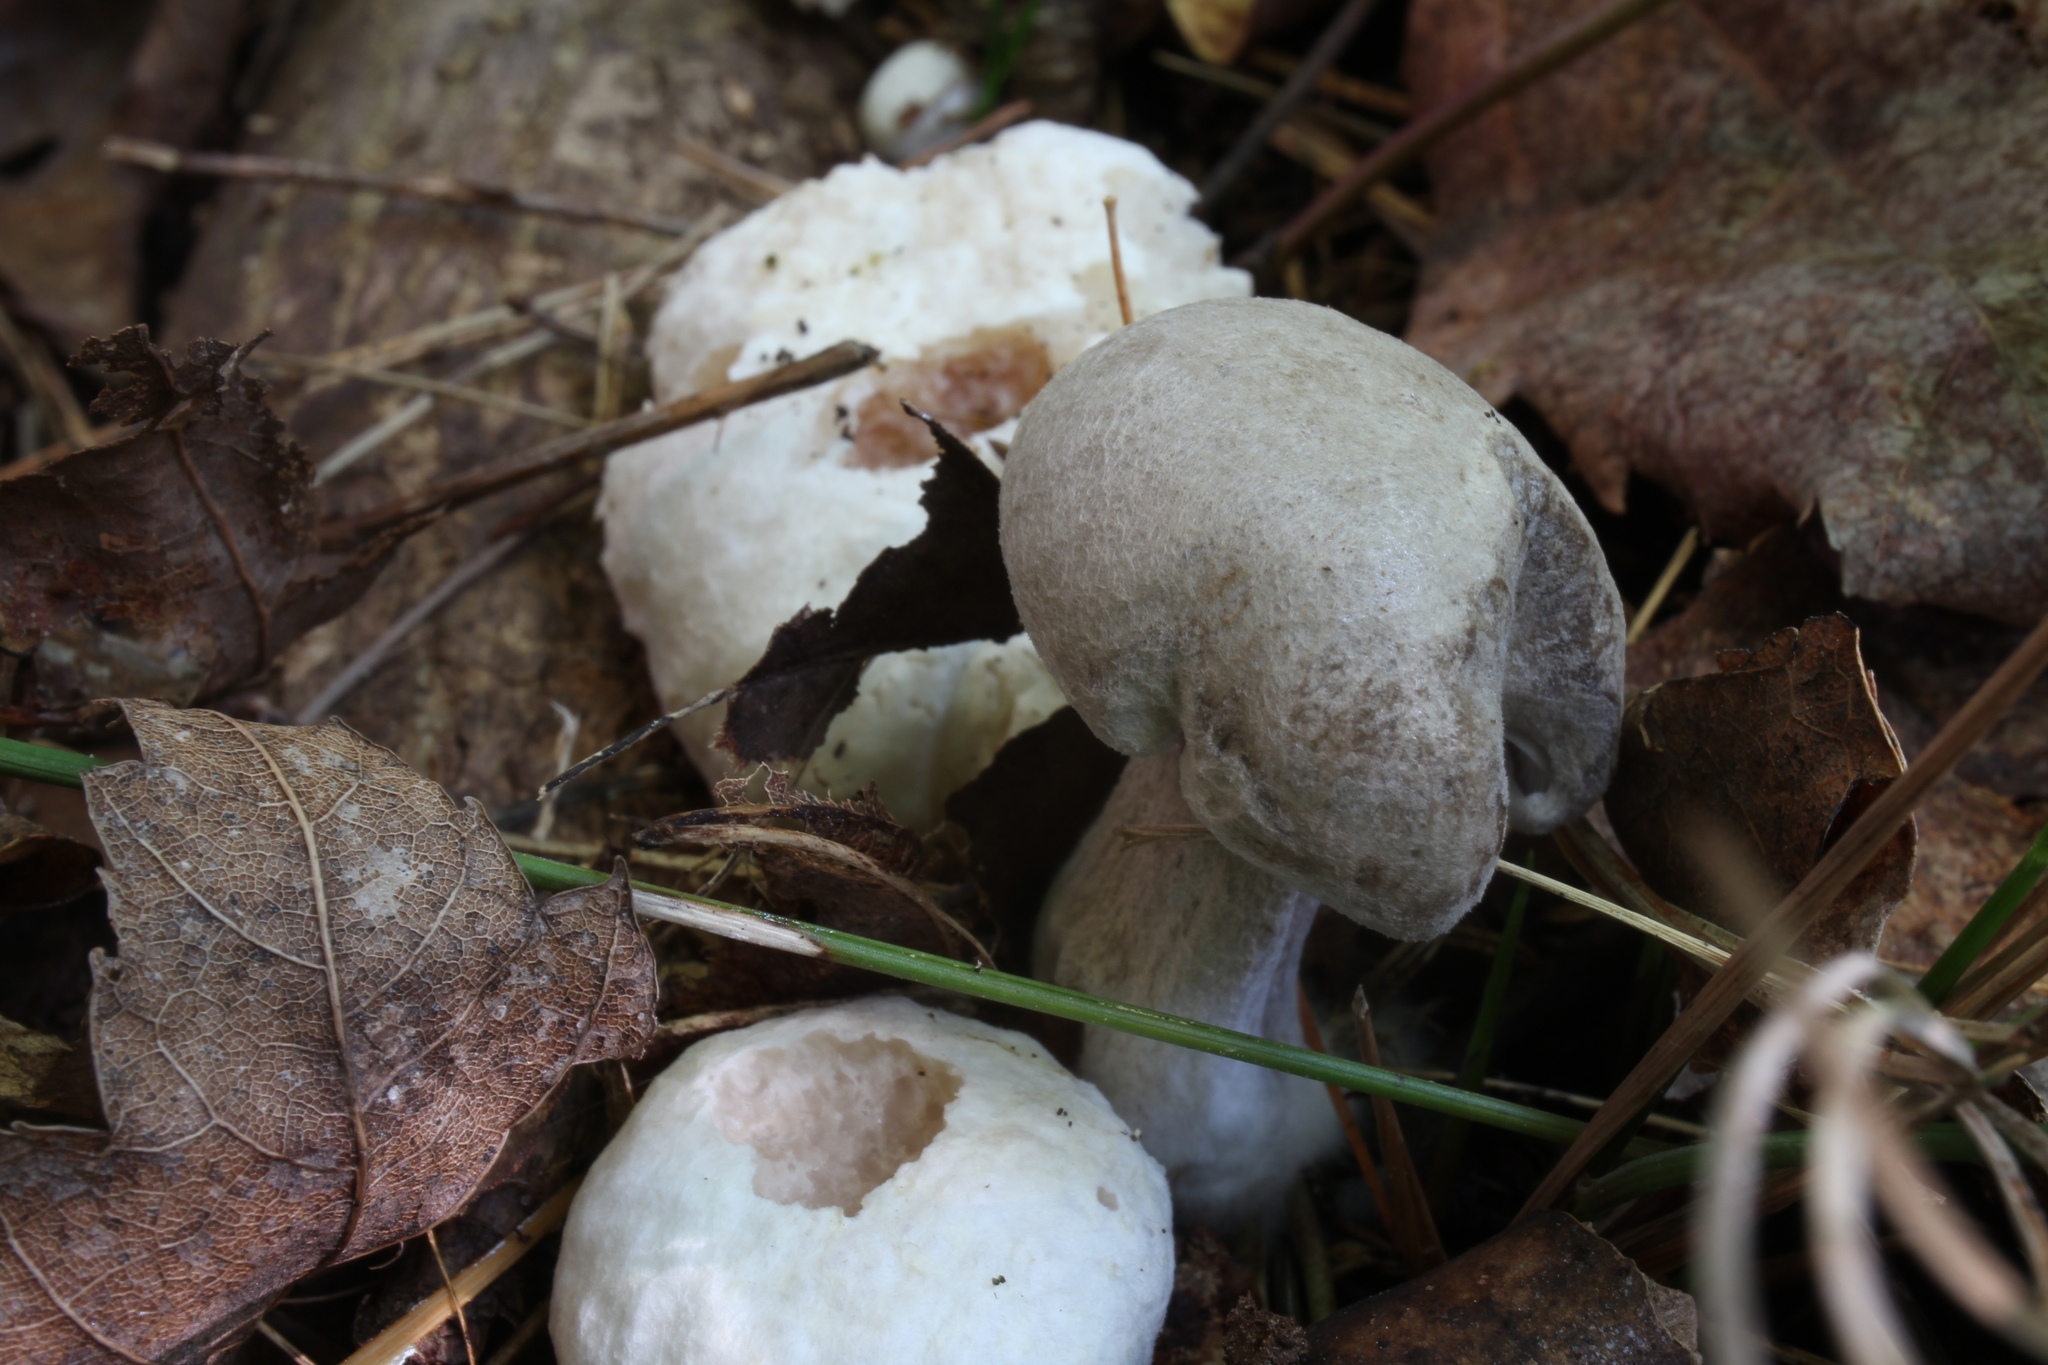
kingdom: Fungi
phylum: Basidiomycota
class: Agaricomycetes
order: Agaricales
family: Entolomataceae
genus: Entoloma
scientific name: Entoloma abortivum
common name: Aborted entoloma
